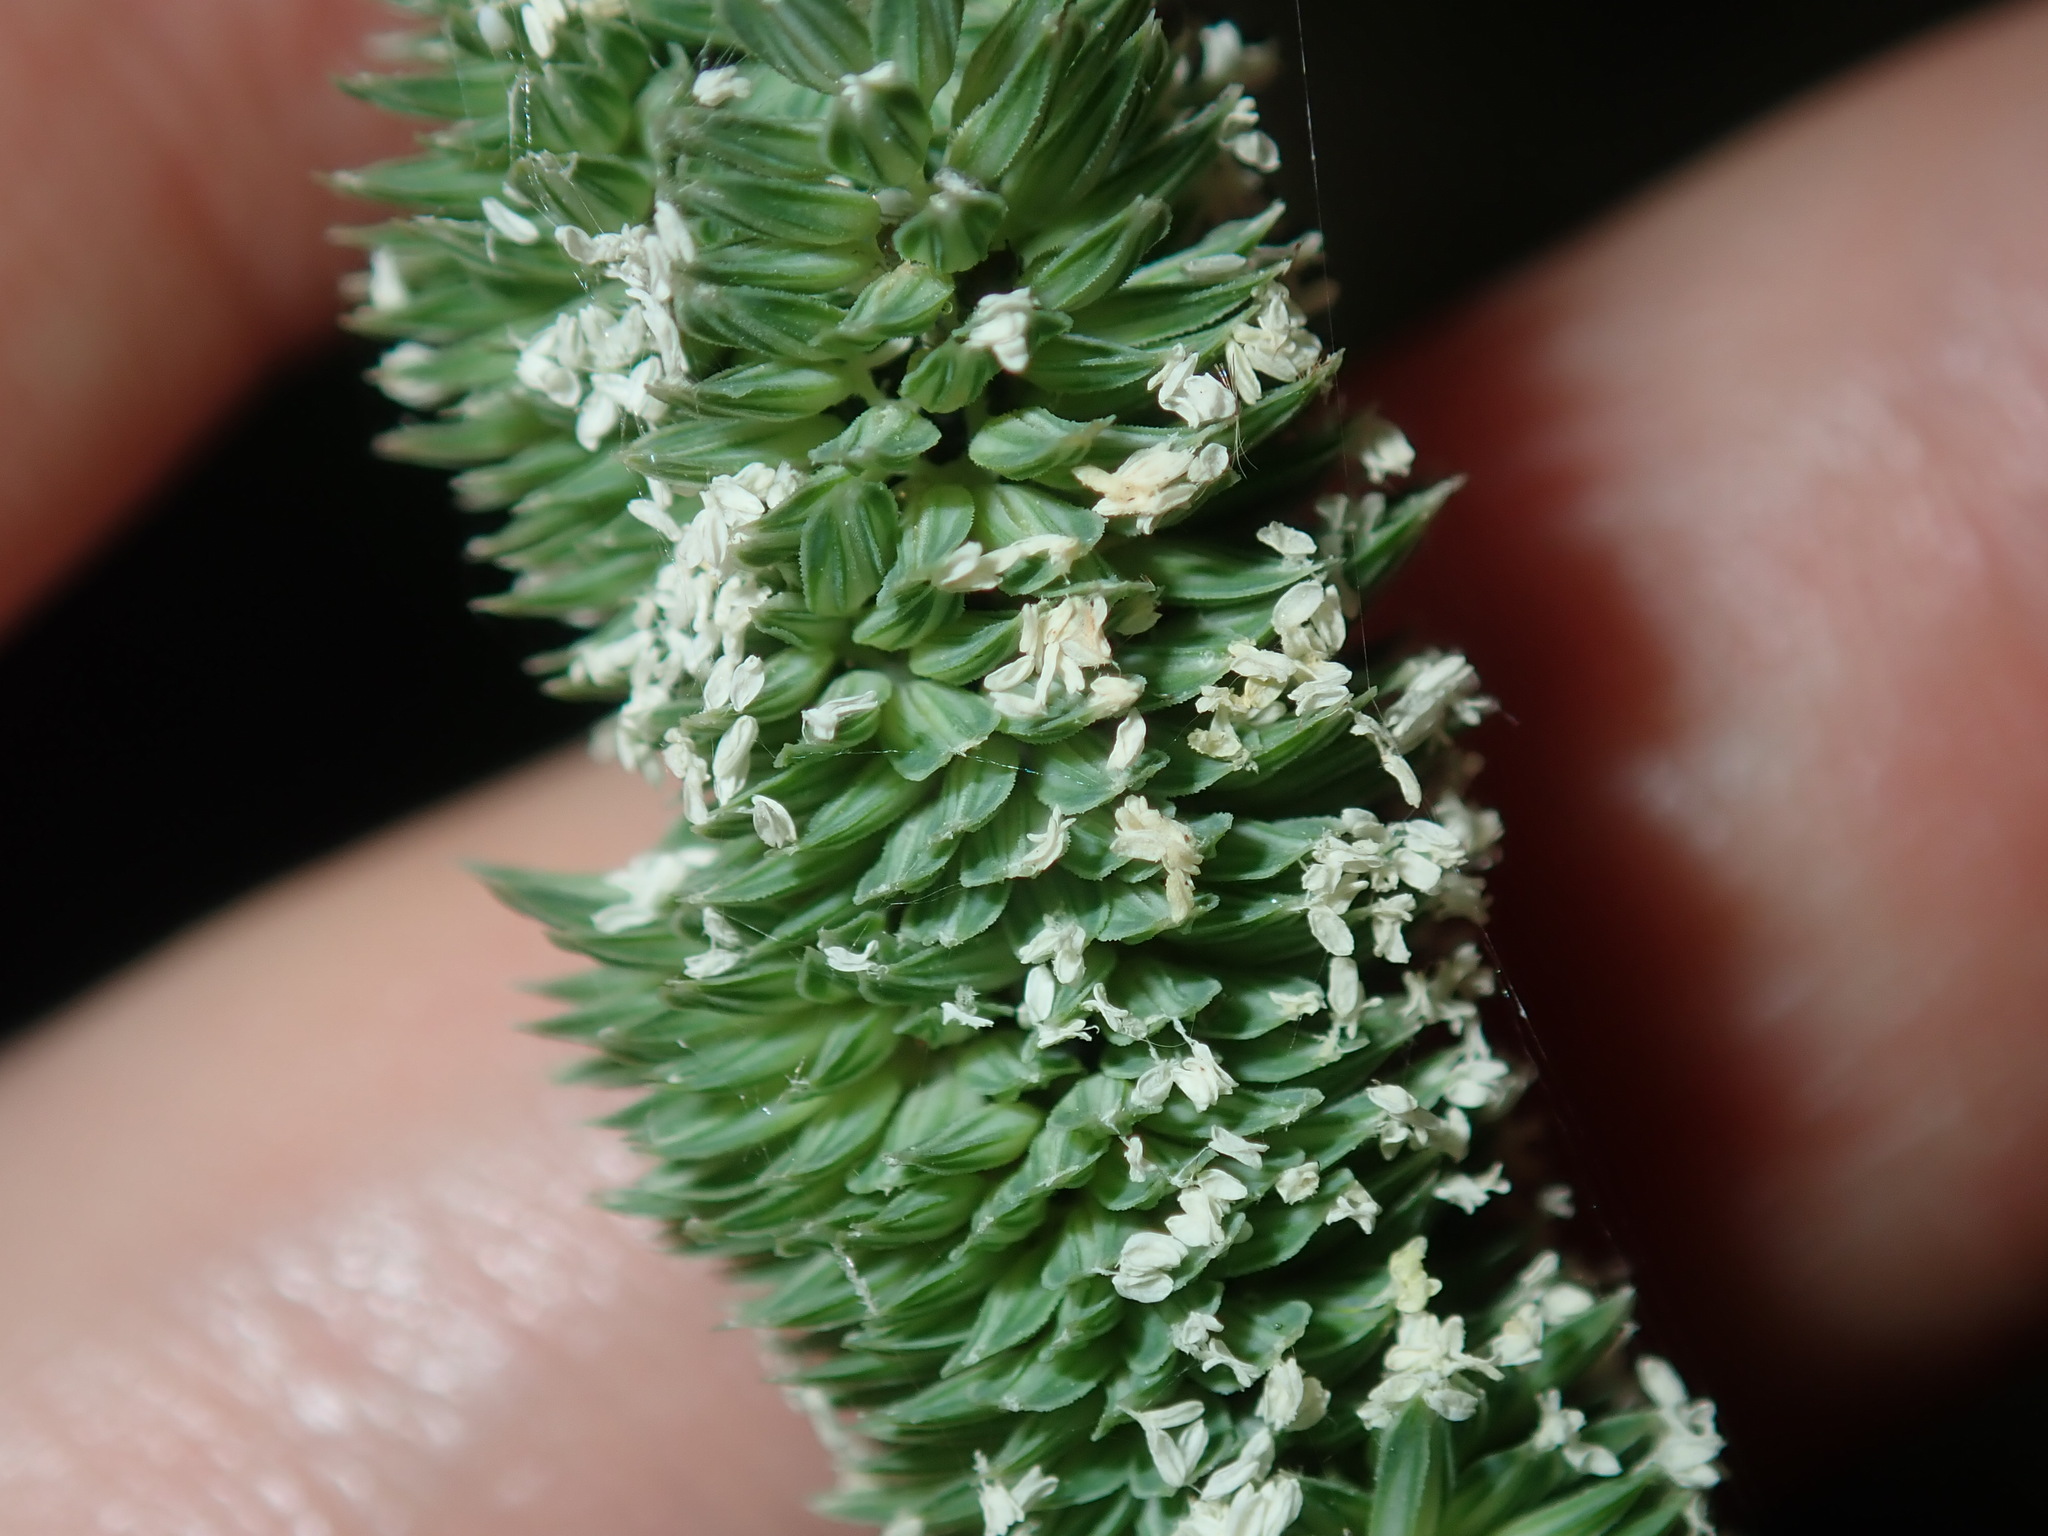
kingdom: Plantae
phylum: Tracheophyta
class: Liliopsida
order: Poales
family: Poaceae
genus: Phalaris
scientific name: Phalaris aquatica
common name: Bulbous canary-grass
